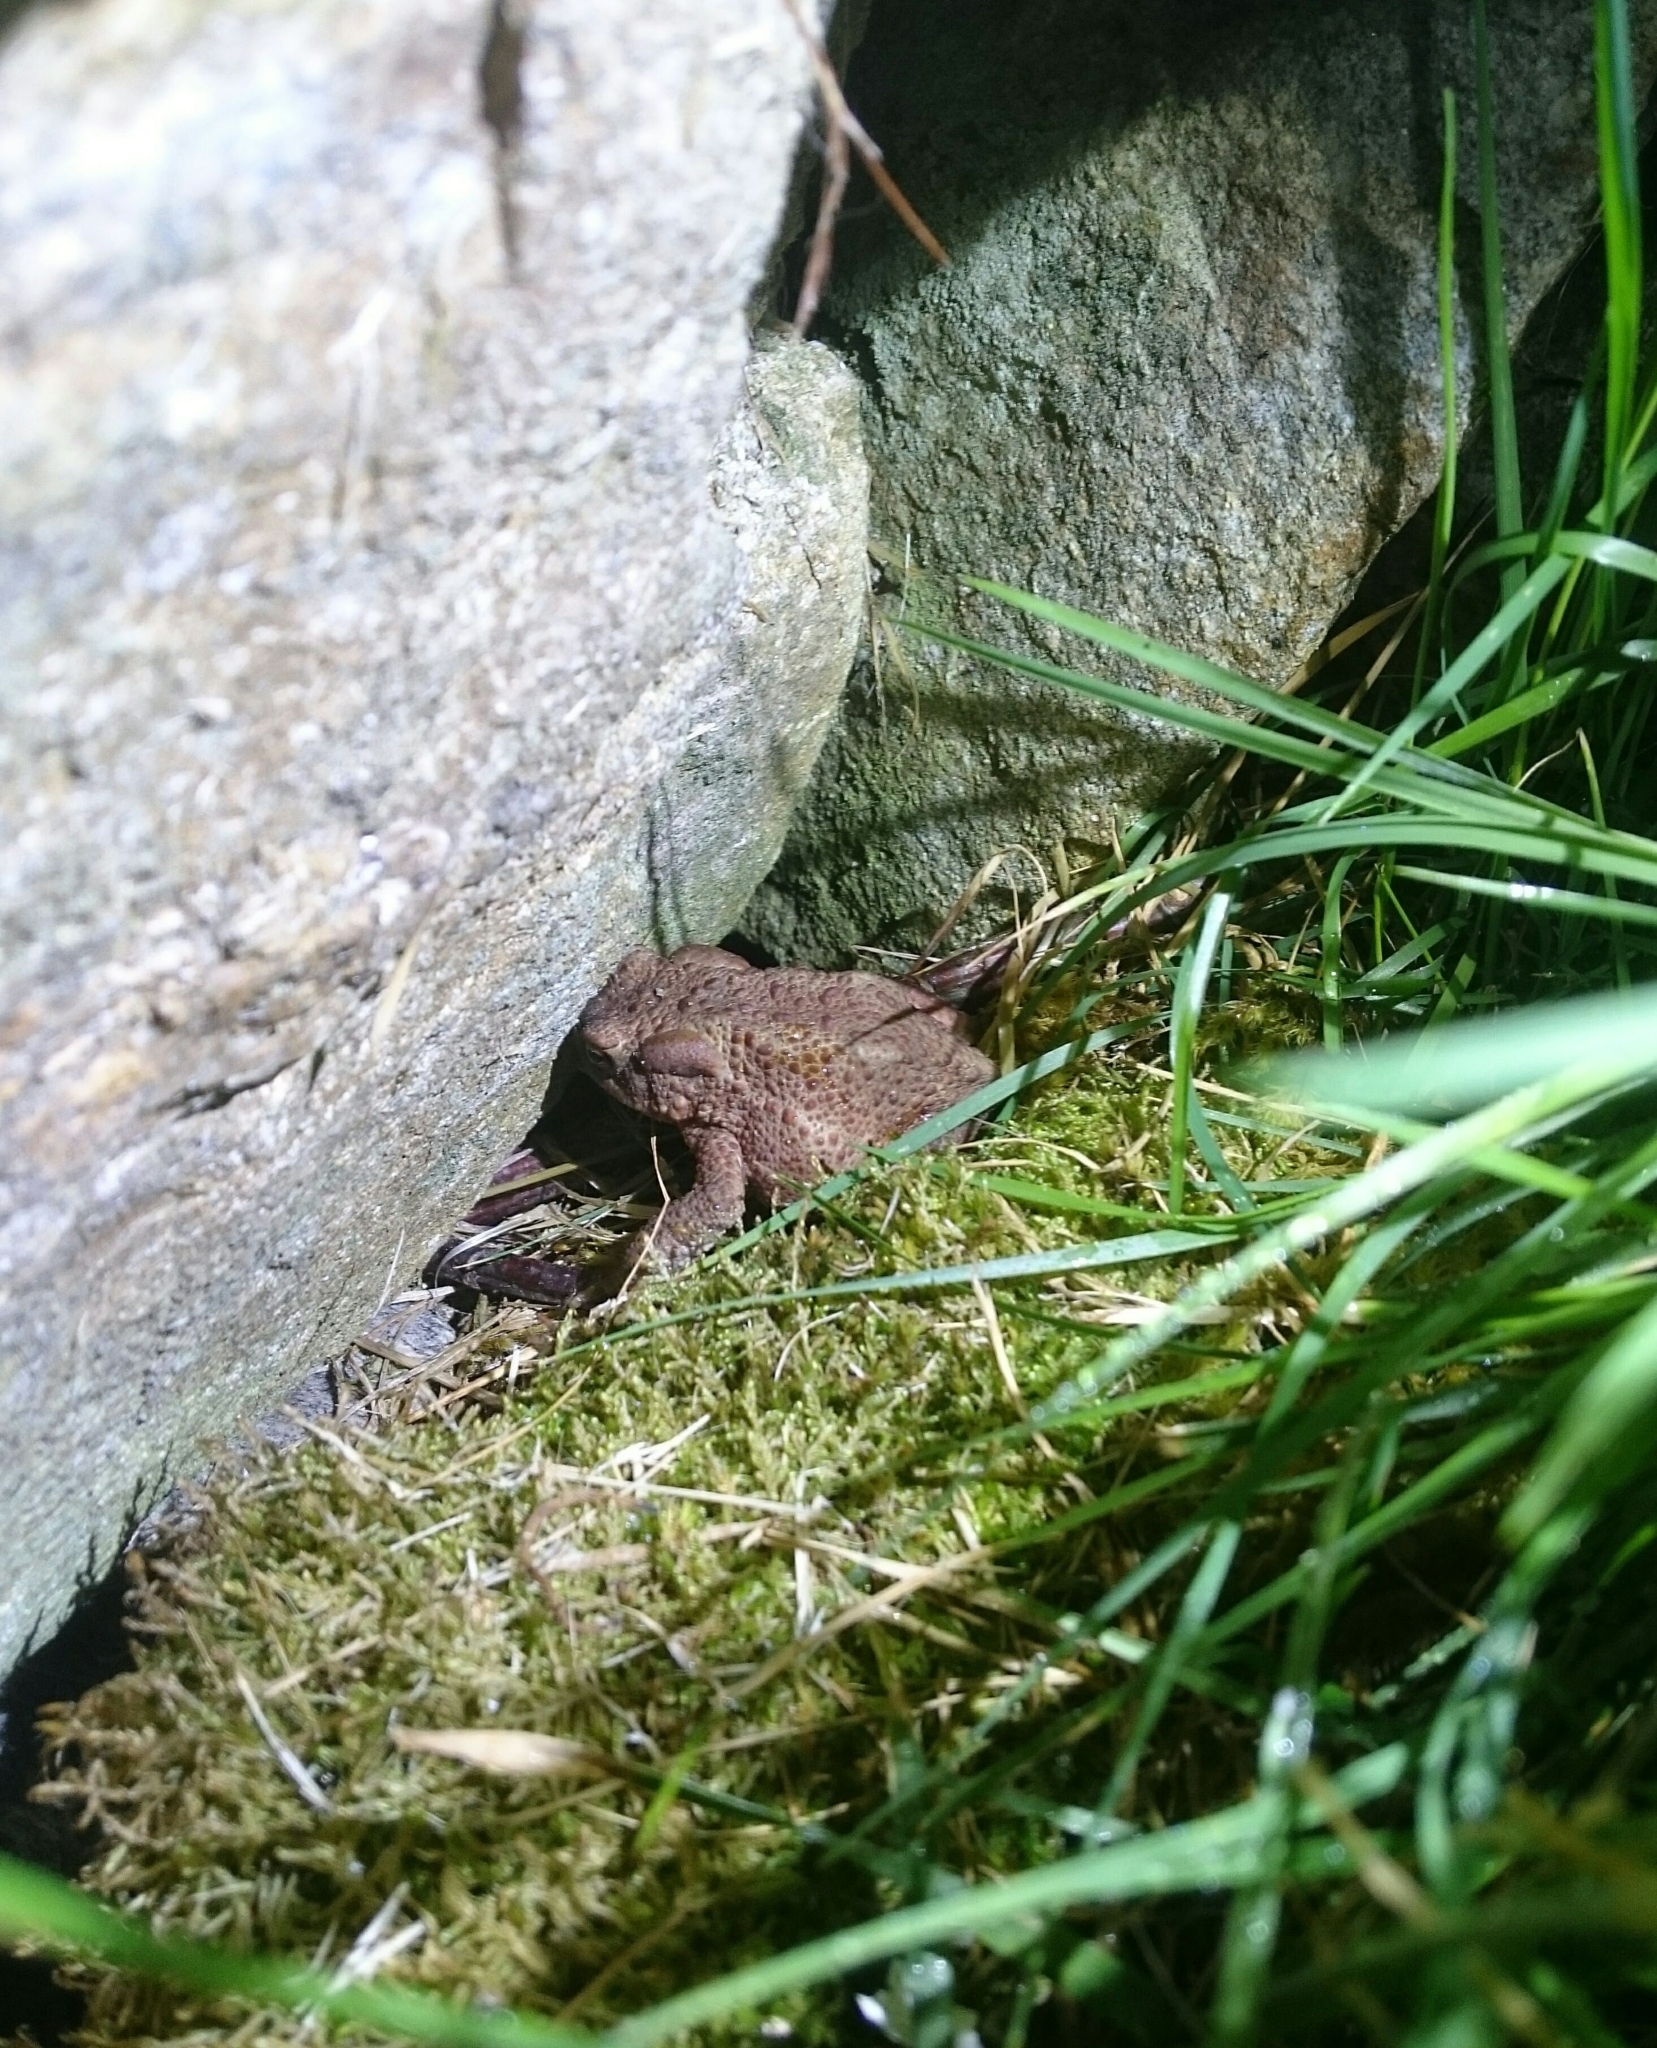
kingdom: Animalia
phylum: Chordata
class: Amphibia
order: Anura
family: Bufonidae
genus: Bufo
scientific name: Bufo bufo
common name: Common toad
